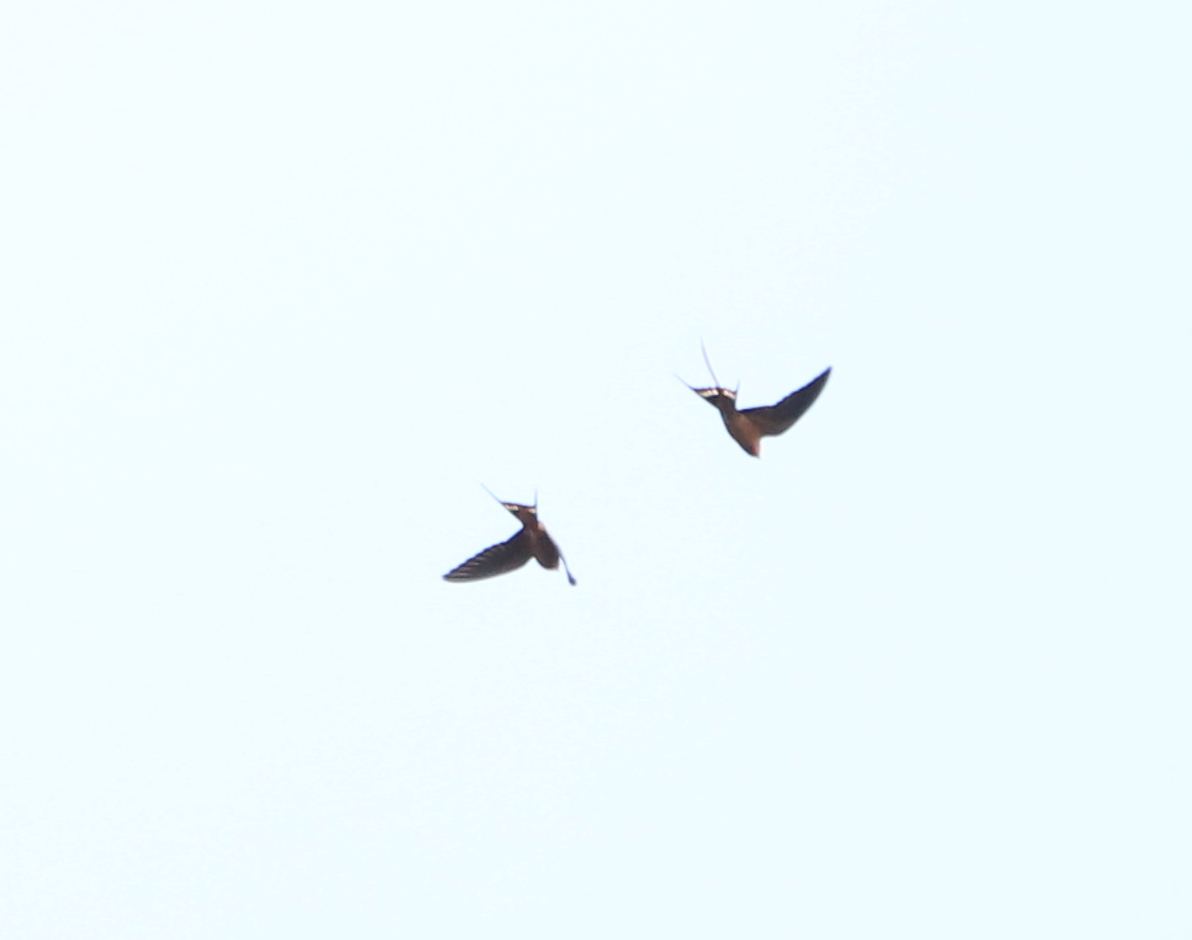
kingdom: Animalia
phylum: Chordata
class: Aves
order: Passeriformes
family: Hirundinidae
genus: Hirundo
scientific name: Hirundo rustica
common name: Barn swallow
